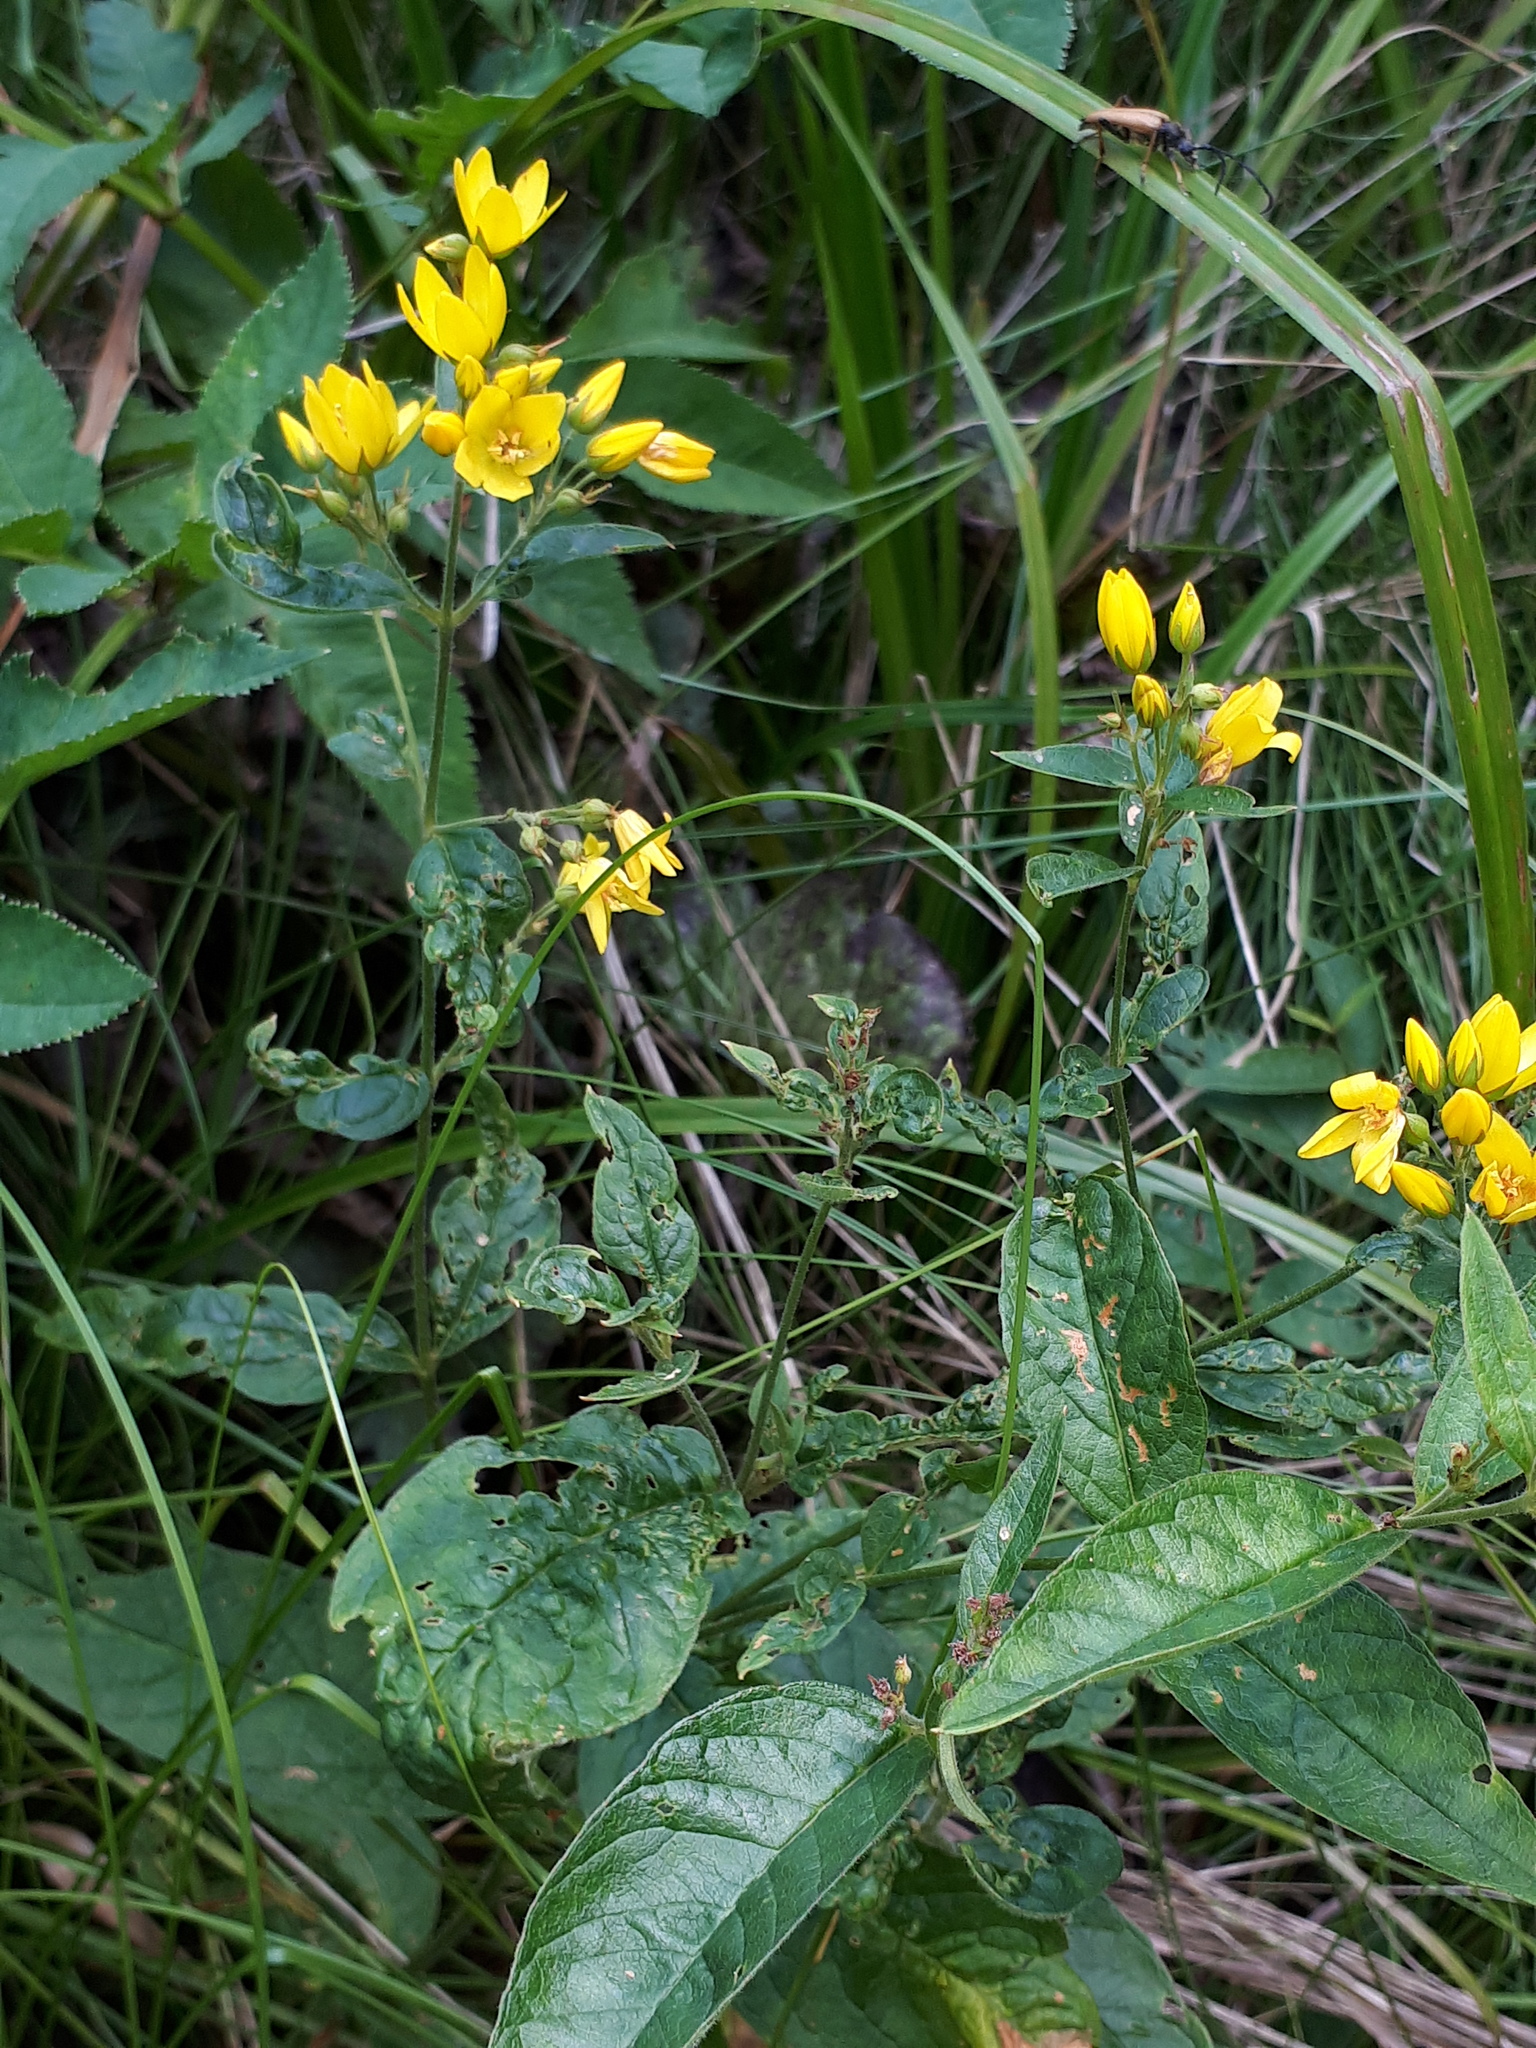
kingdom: Plantae
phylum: Tracheophyta
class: Magnoliopsida
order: Ericales
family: Primulaceae
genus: Lysimachia
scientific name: Lysimachia vulgaris
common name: Yellow loosestrife
